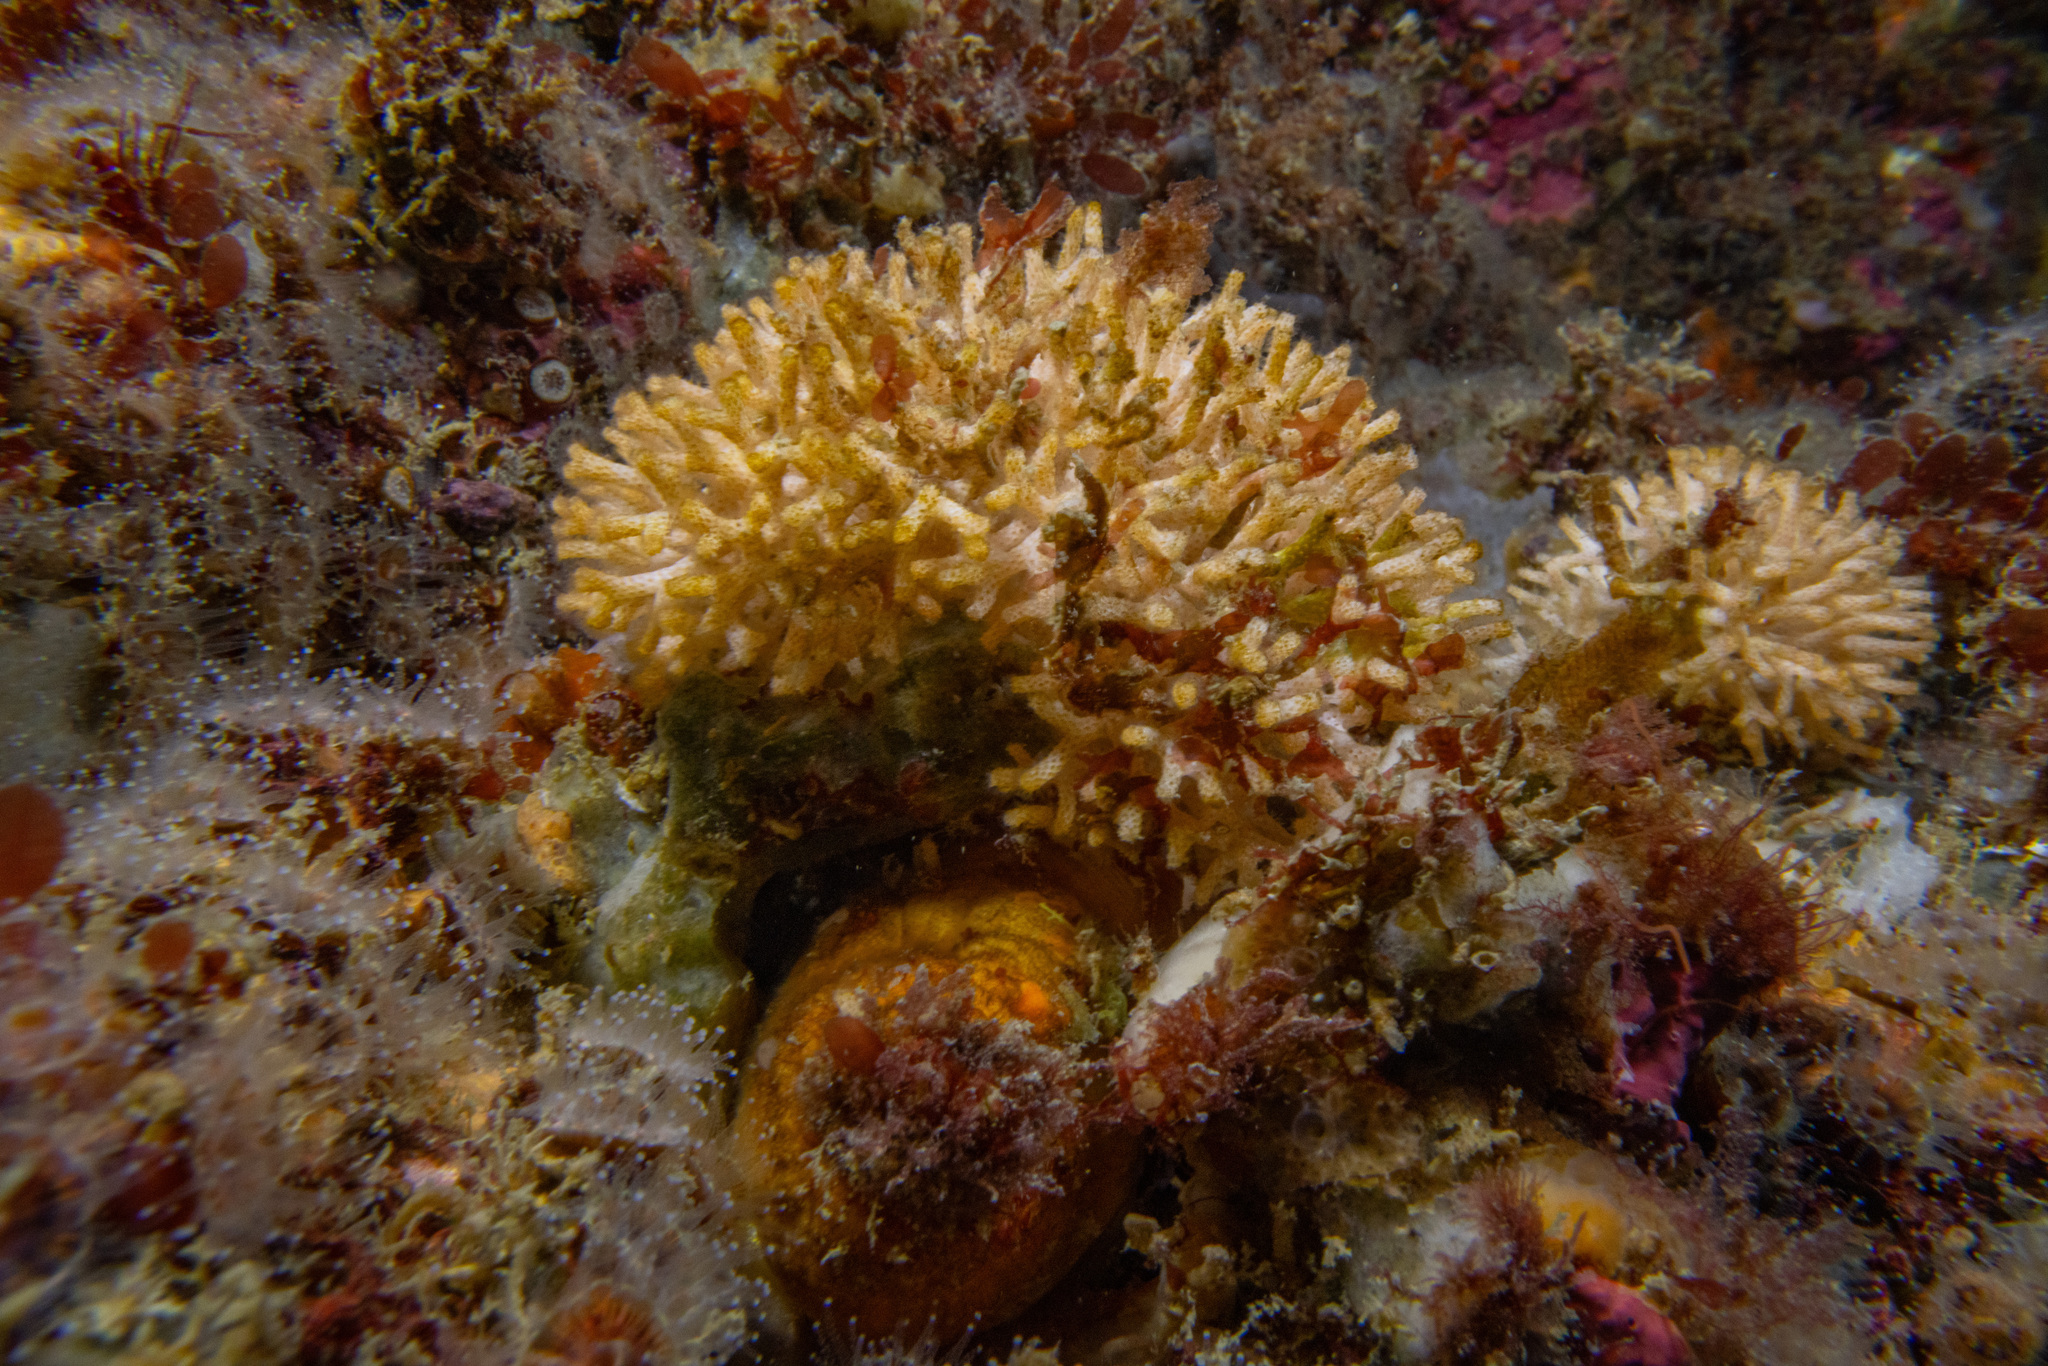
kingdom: Animalia
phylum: Bryozoa
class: Stenolaemata
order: Cyclostomatida
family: Diaperoeciidae
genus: Diaperoecia
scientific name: Diaperoecia purpurascens
